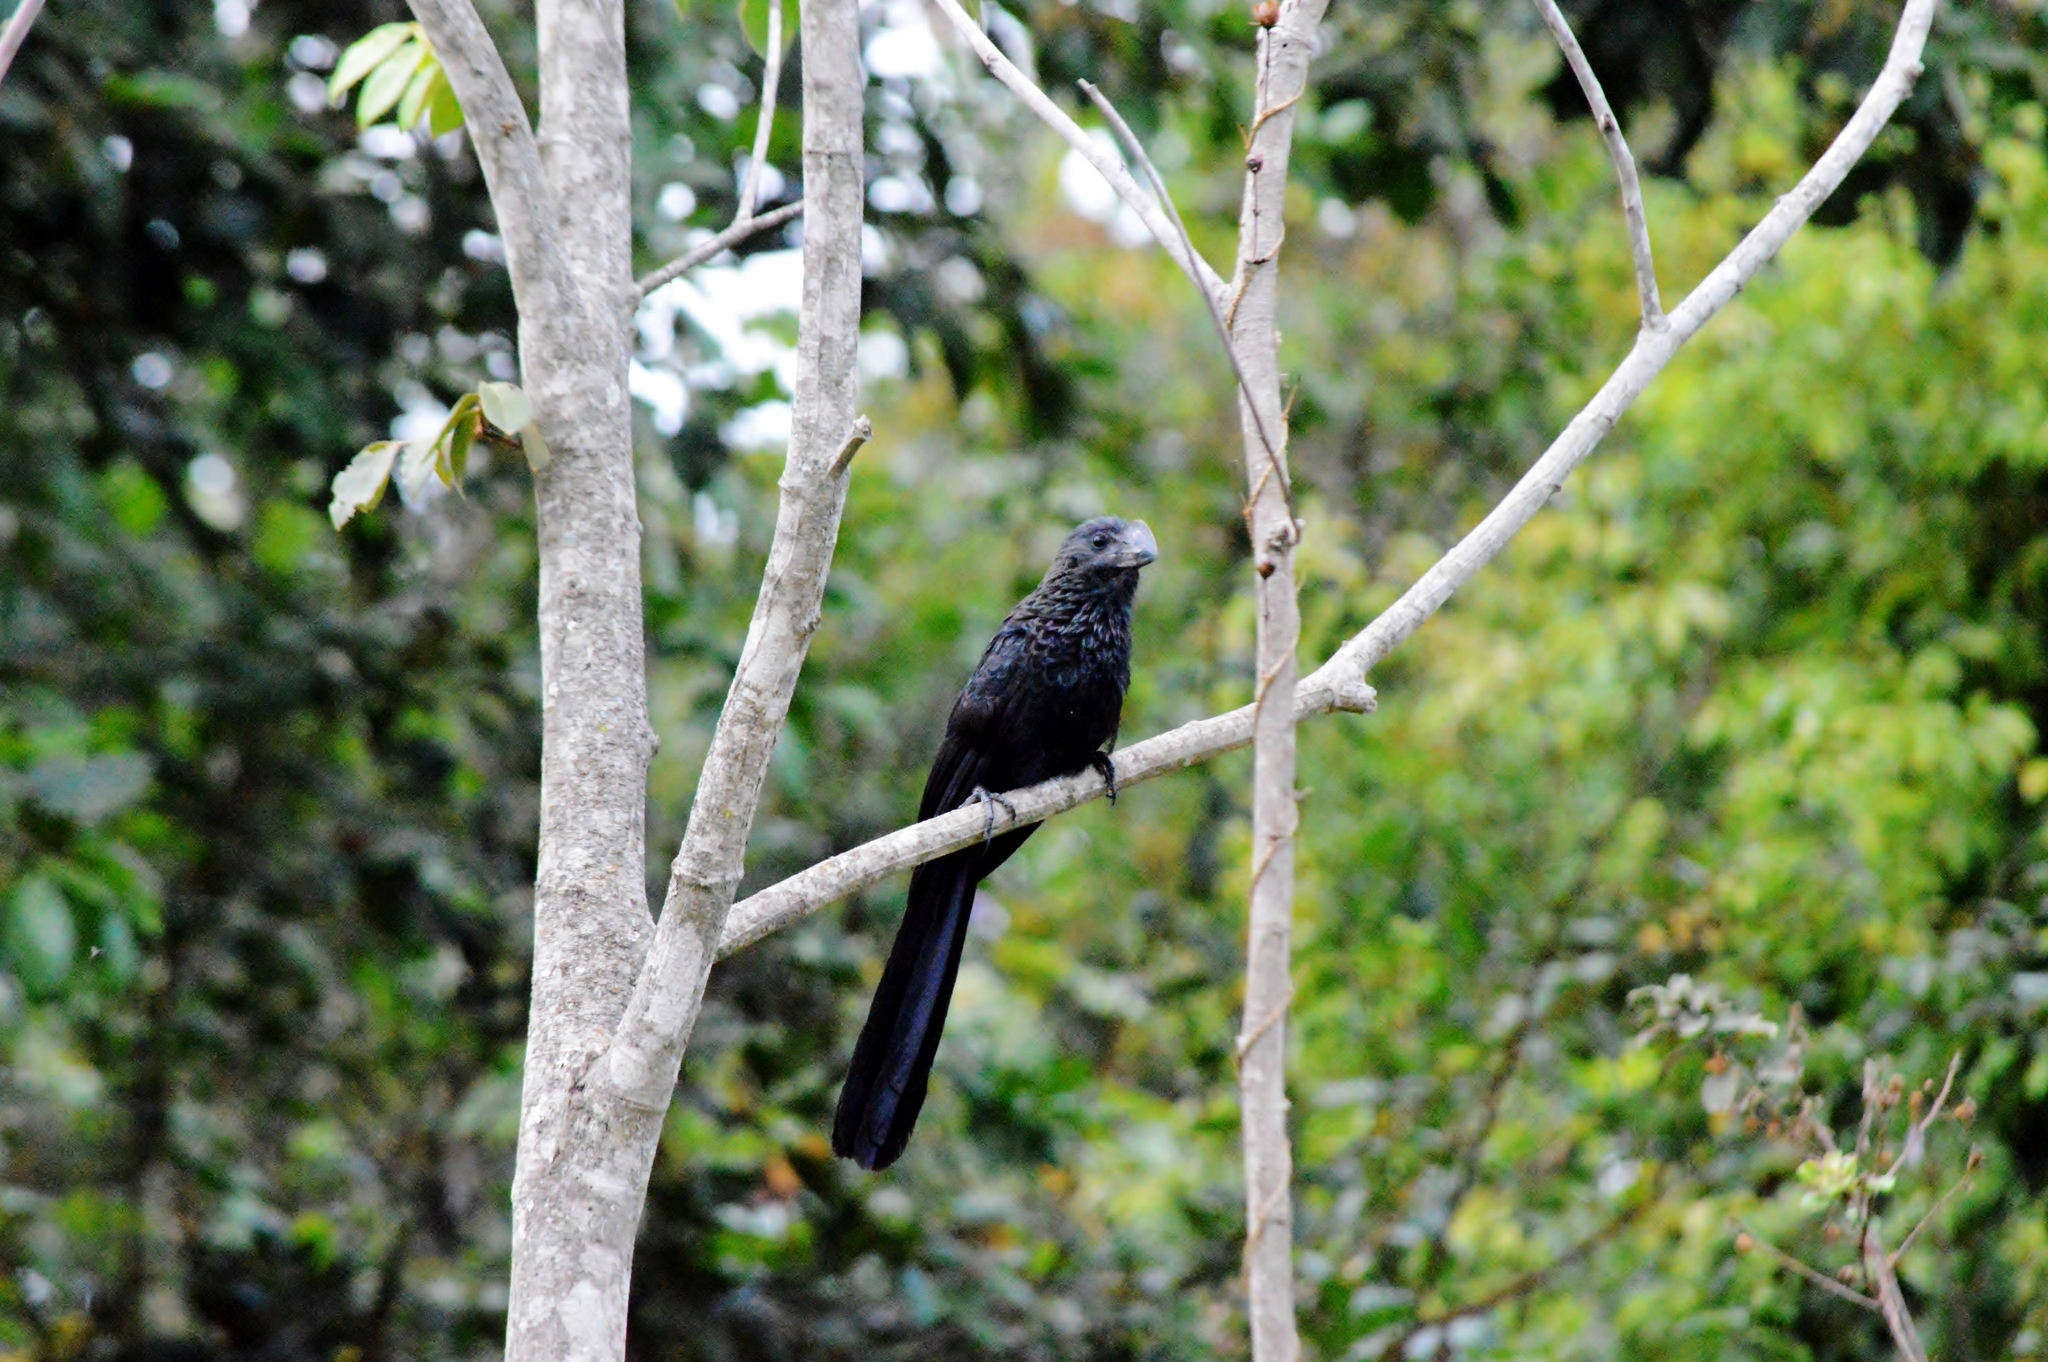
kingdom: Animalia
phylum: Chordata
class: Aves
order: Cuculiformes
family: Cuculidae
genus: Crotophaga
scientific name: Crotophaga ani
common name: Smooth-billed ani
